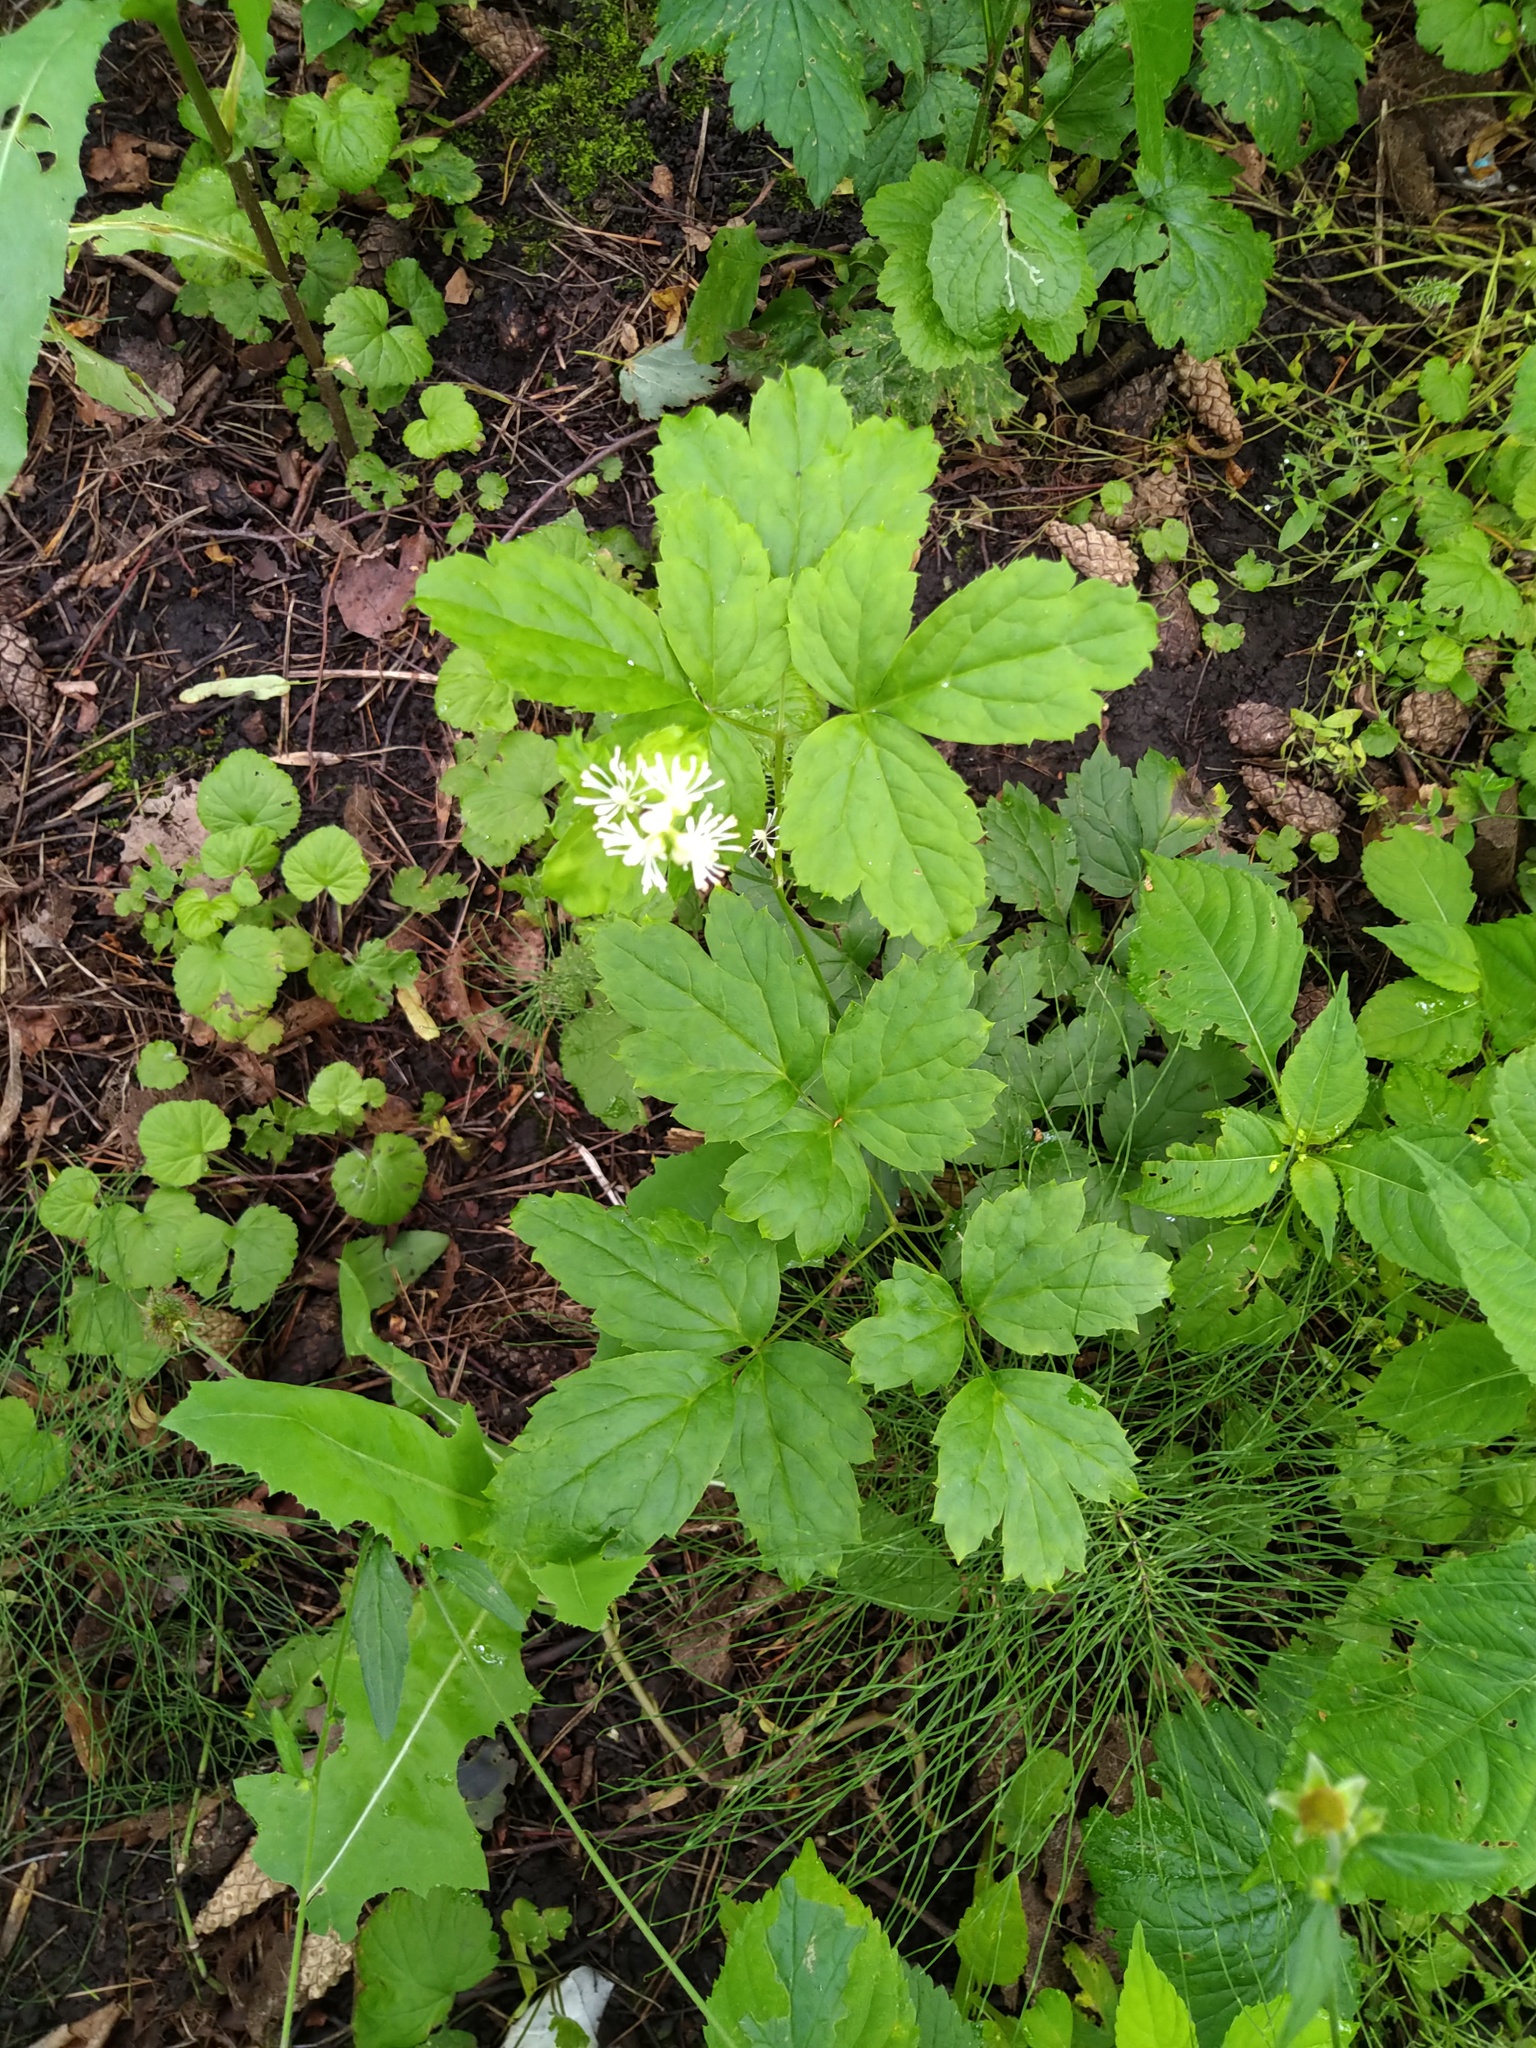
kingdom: Plantae
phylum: Tracheophyta
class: Magnoliopsida
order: Ranunculales
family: Ranunculaceae
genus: Actaea
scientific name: Actaea spicata
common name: Baneberry
